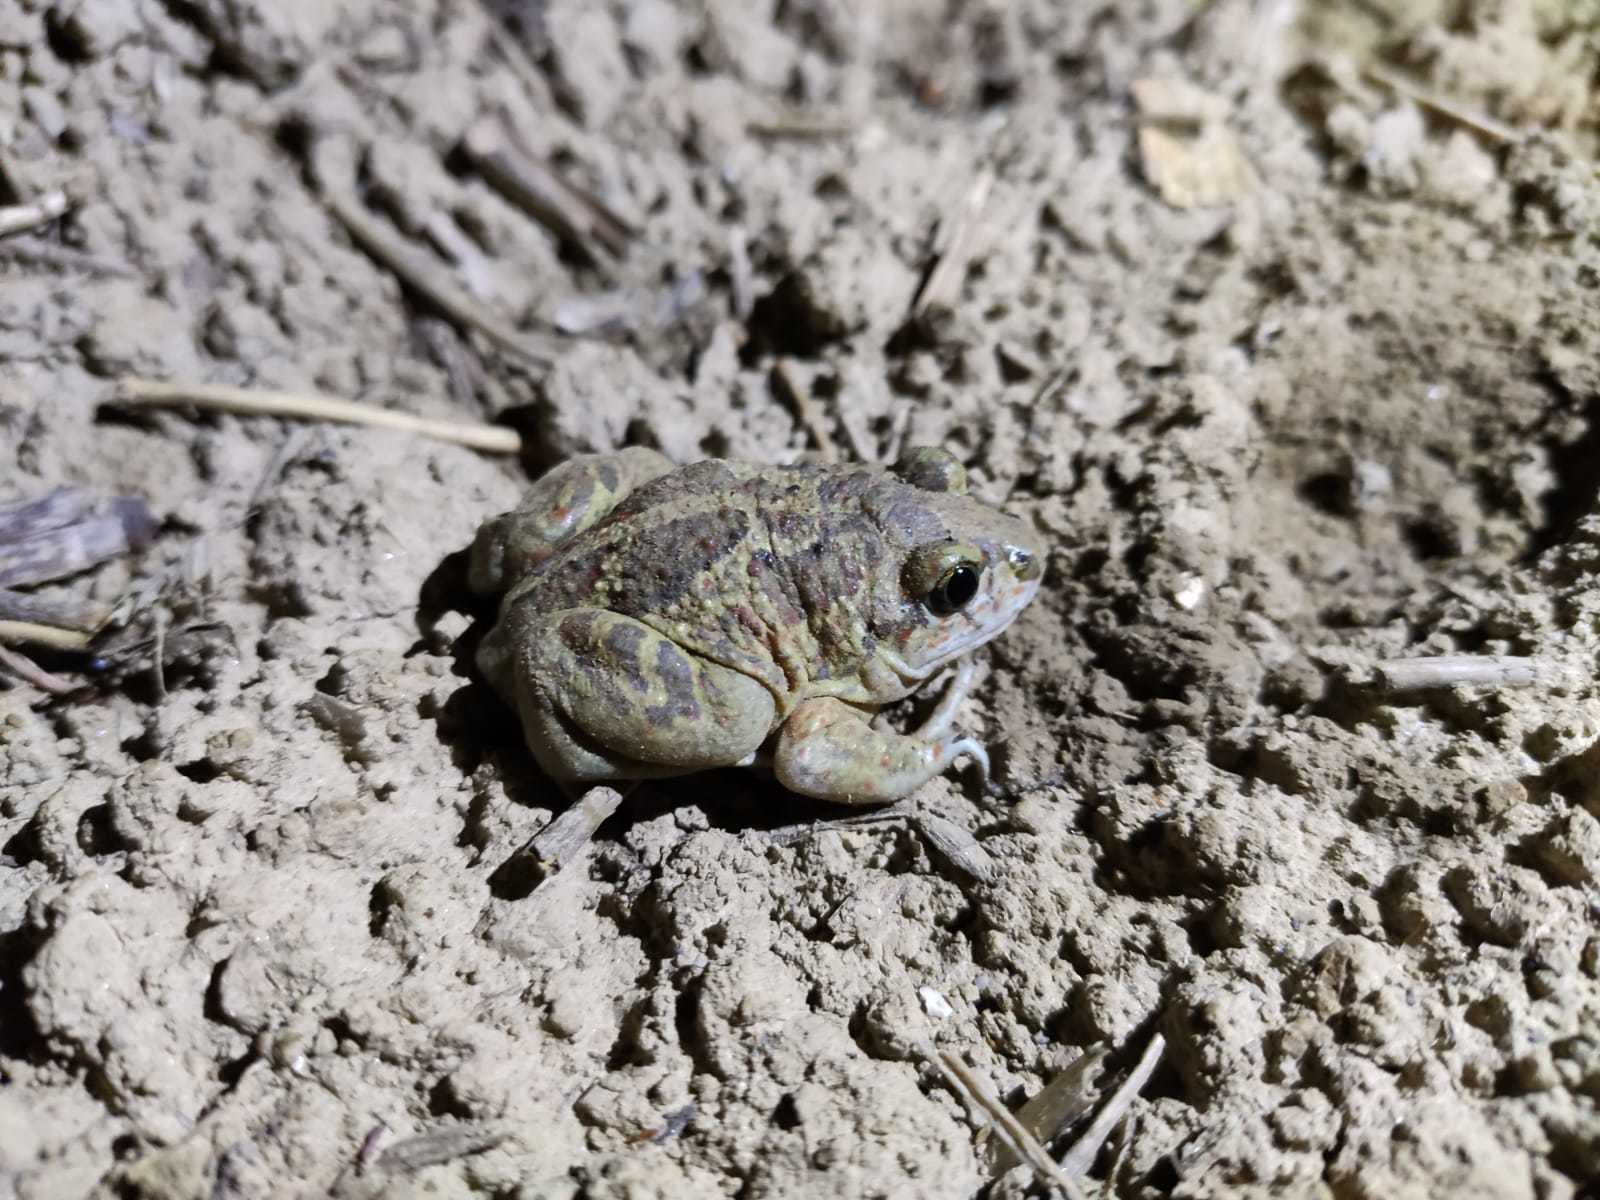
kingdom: Animalia
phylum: Chordata
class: Amphibia
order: Anura
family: Pelobatidae
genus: Pelobates
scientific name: Pelobates fuscus
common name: Common eurasian spadefoot toad
